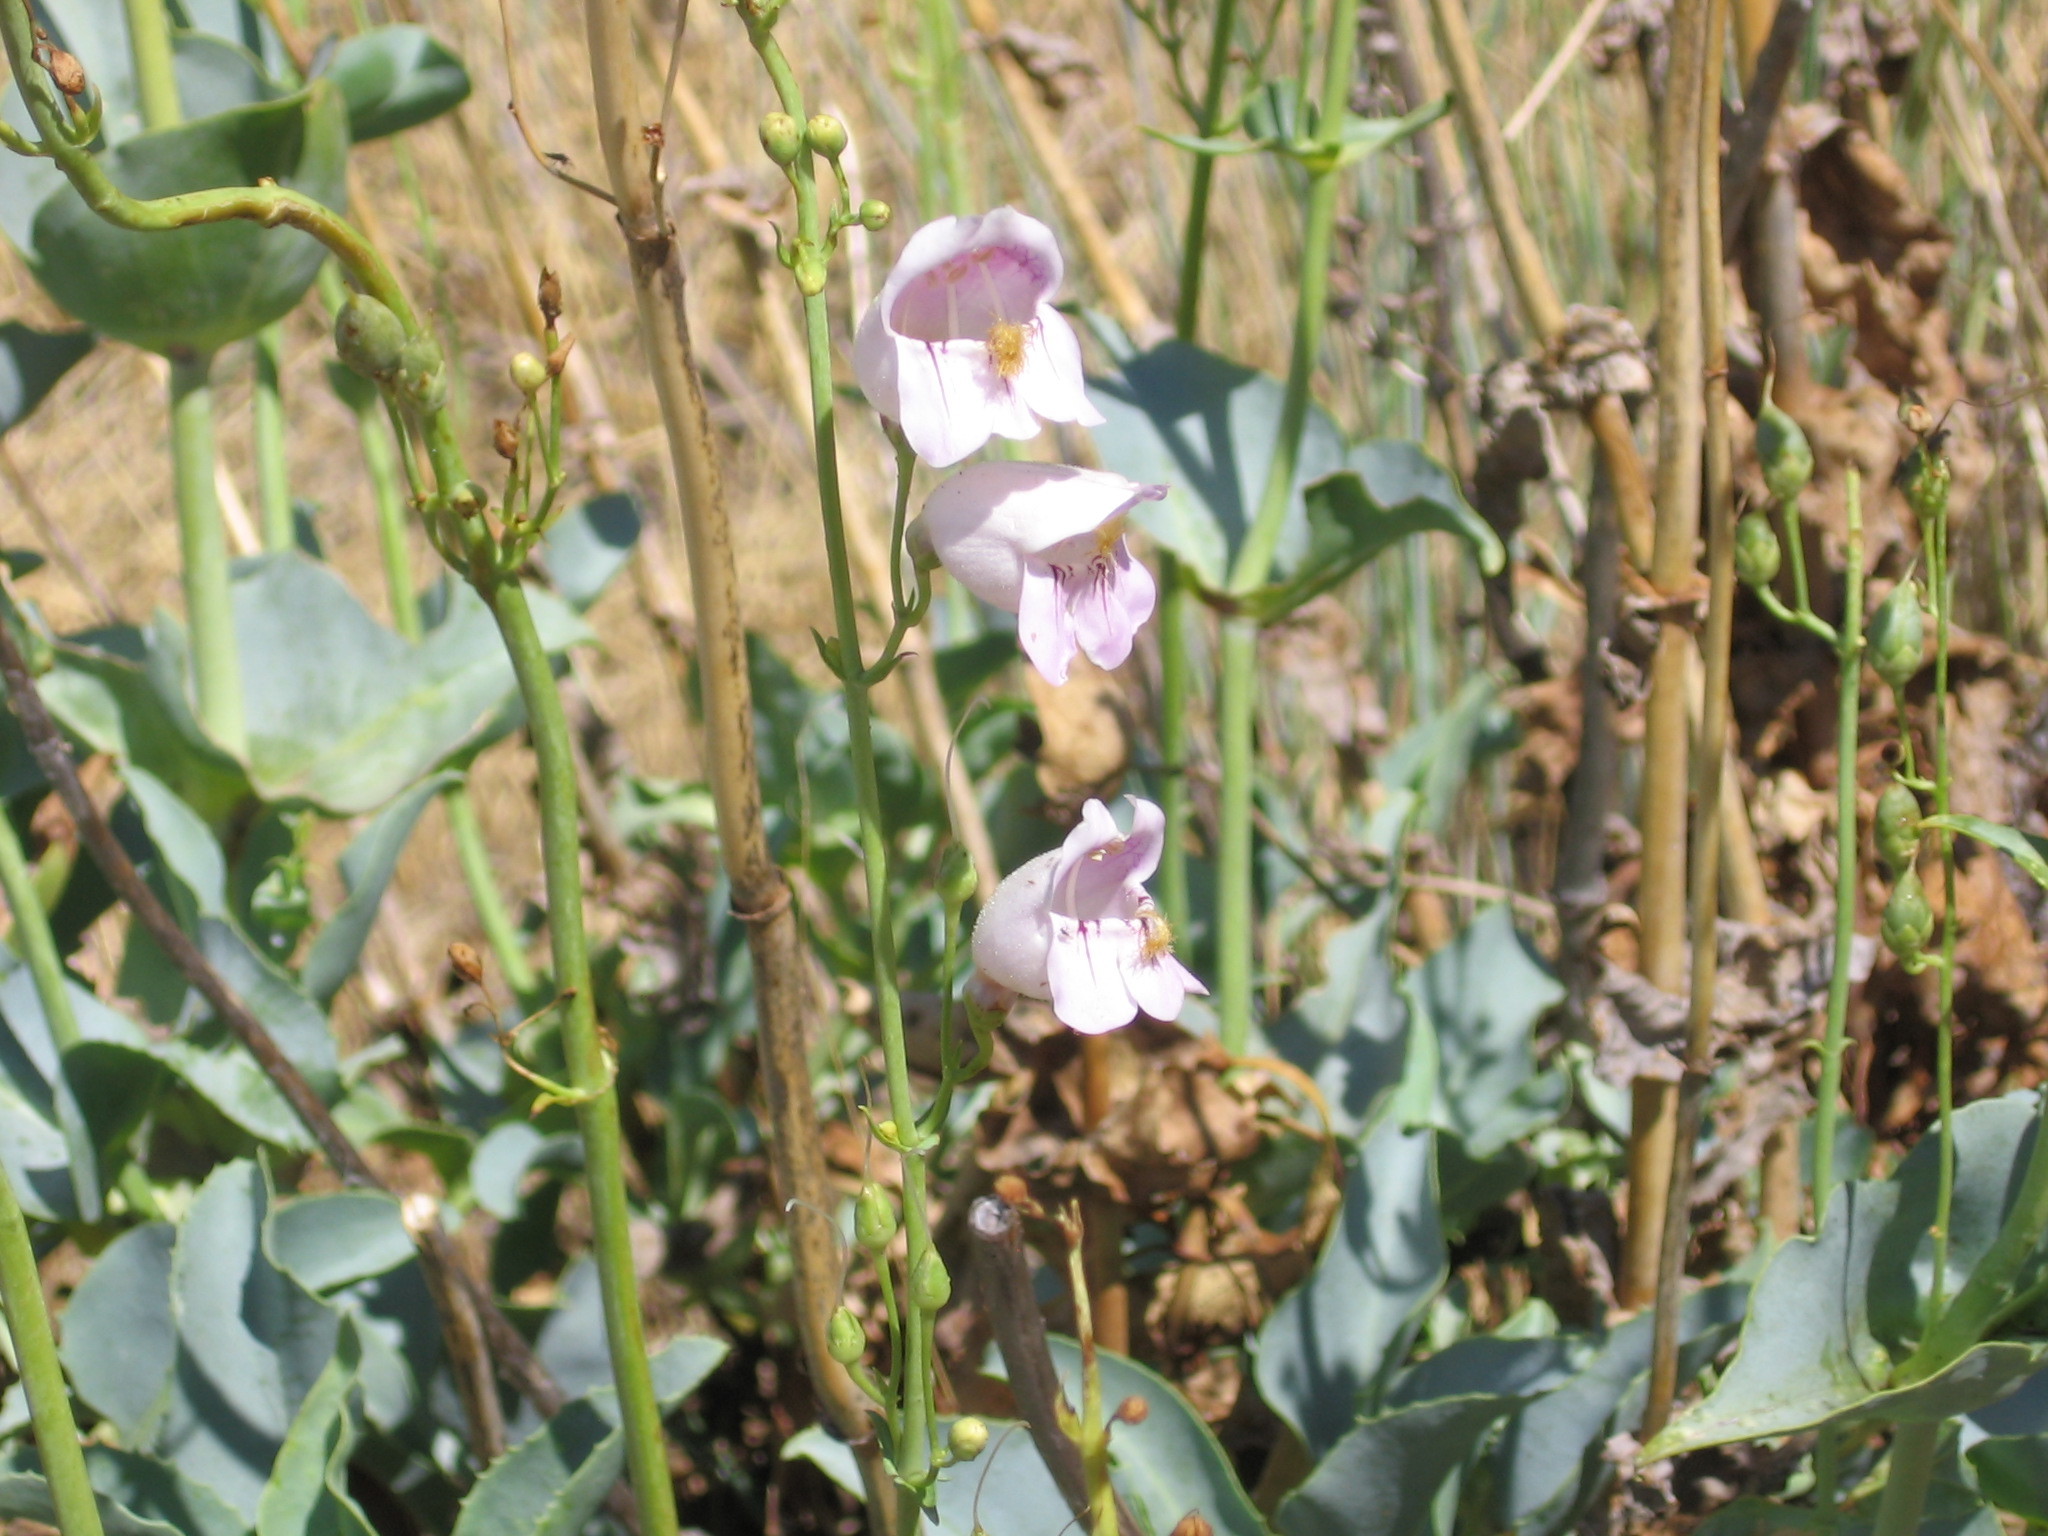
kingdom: Plantae
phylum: Tracheophyta
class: Magnoliopsida
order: Lamiales
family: Plantaginaceae
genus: Penstemon
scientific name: Penstemon palmeri
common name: Palmer penstemon
